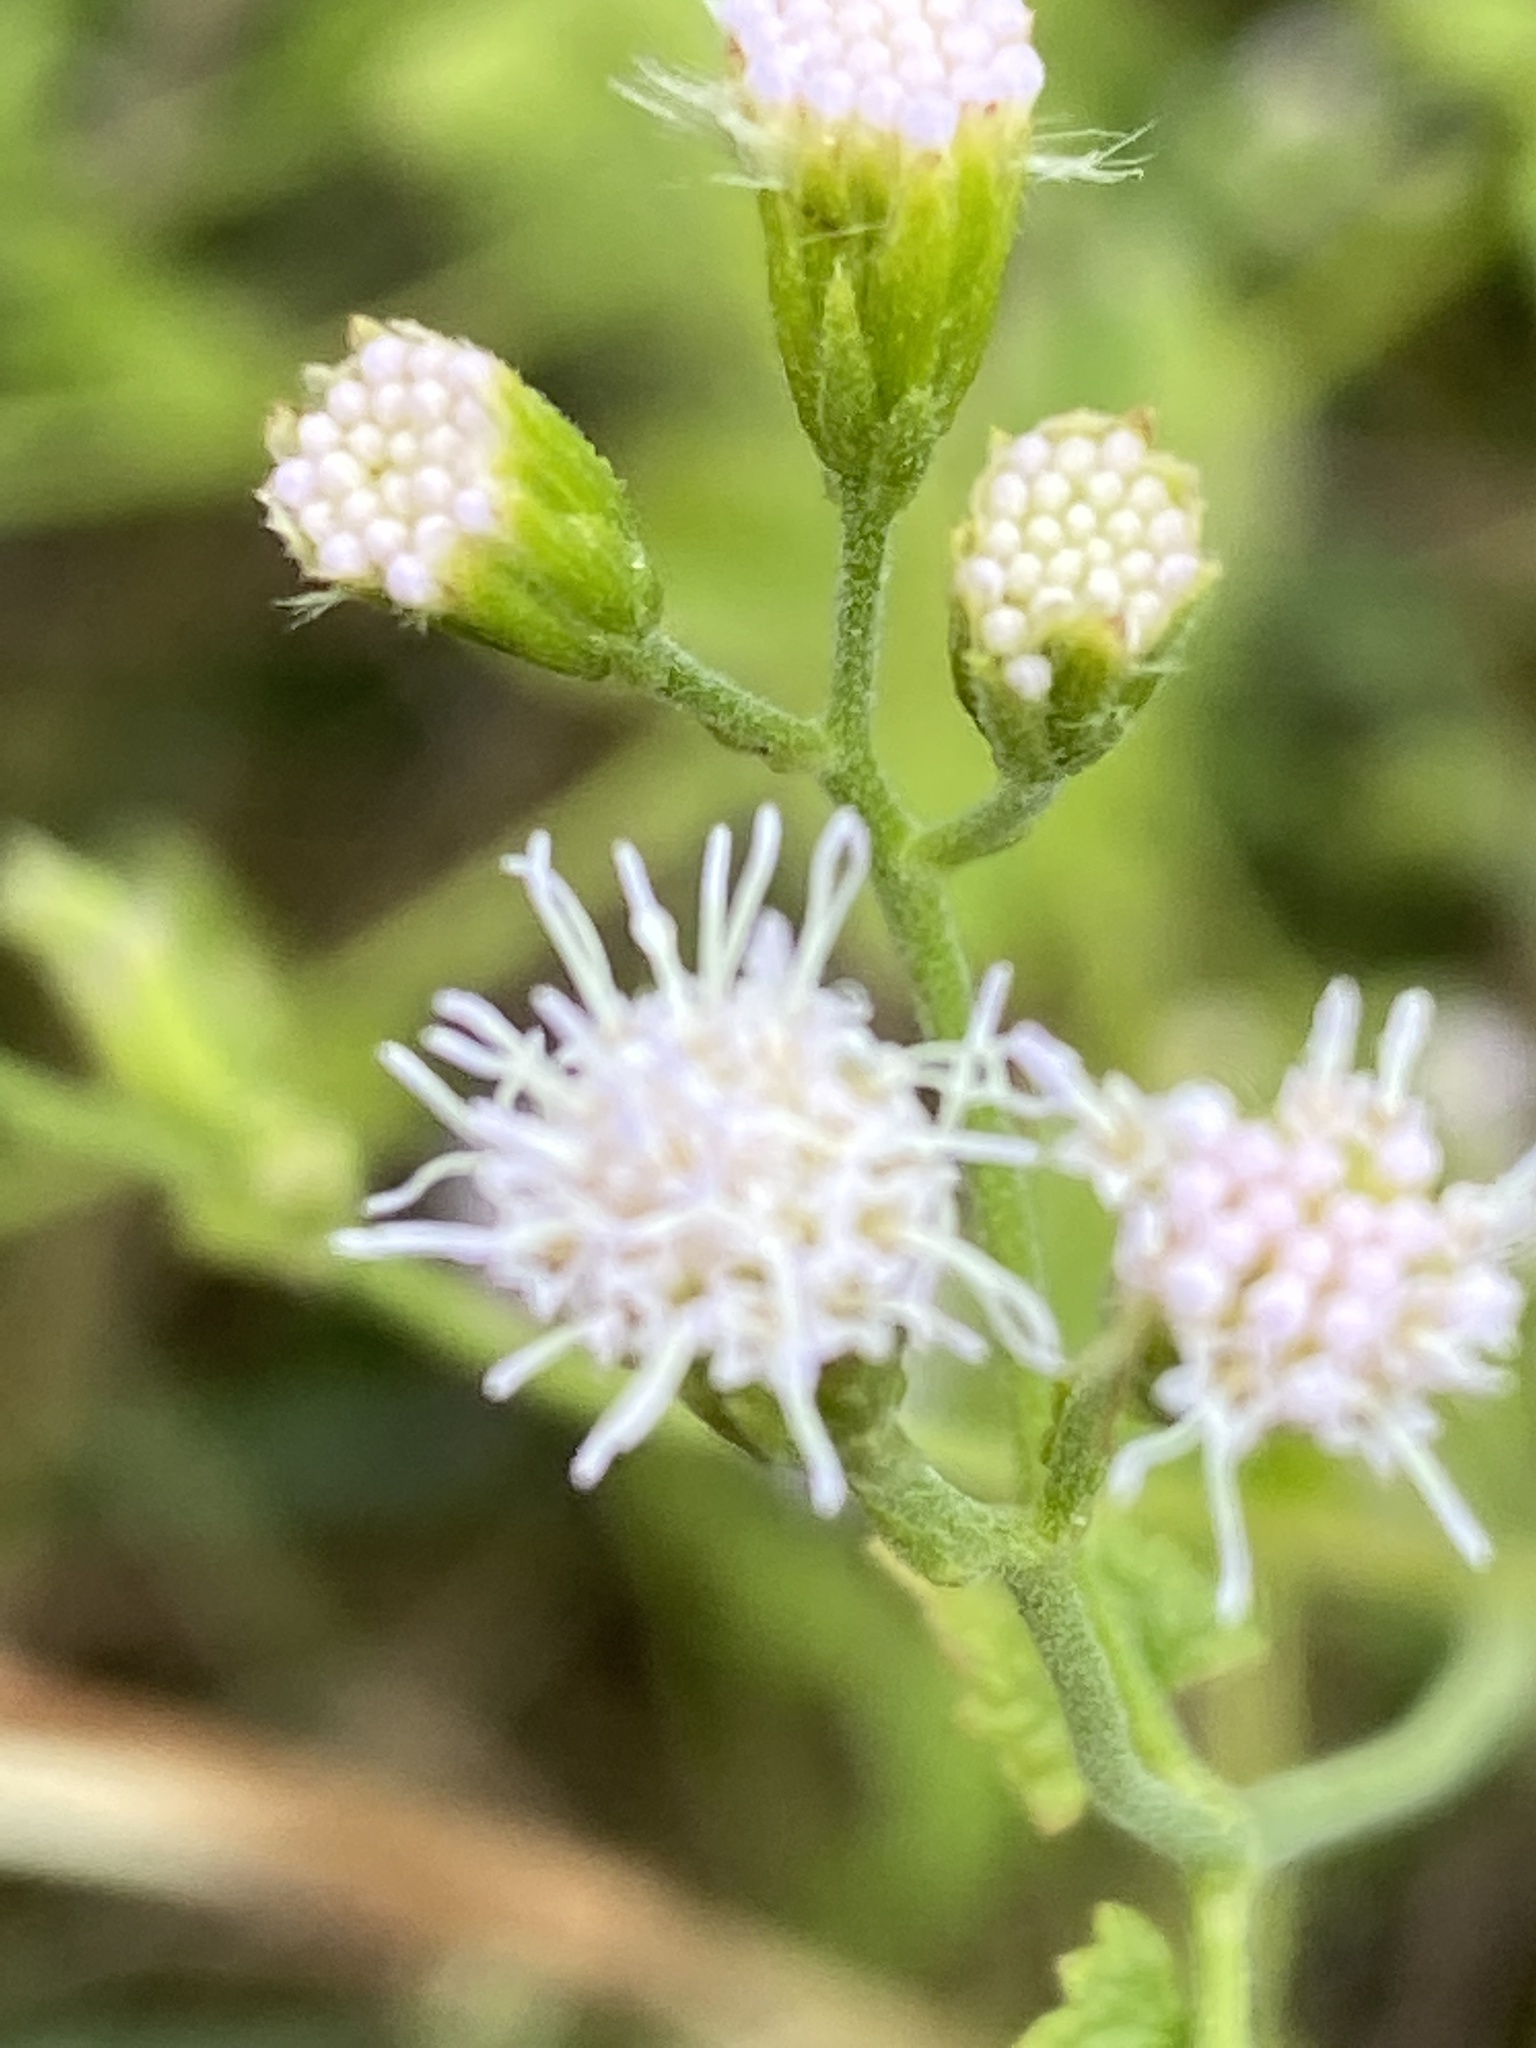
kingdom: Plantae
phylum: Tracheophyta
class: Magnoliopsida
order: Asterales
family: Asteraceae
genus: Fleischmannia
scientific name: Fleischmannia incarnata
